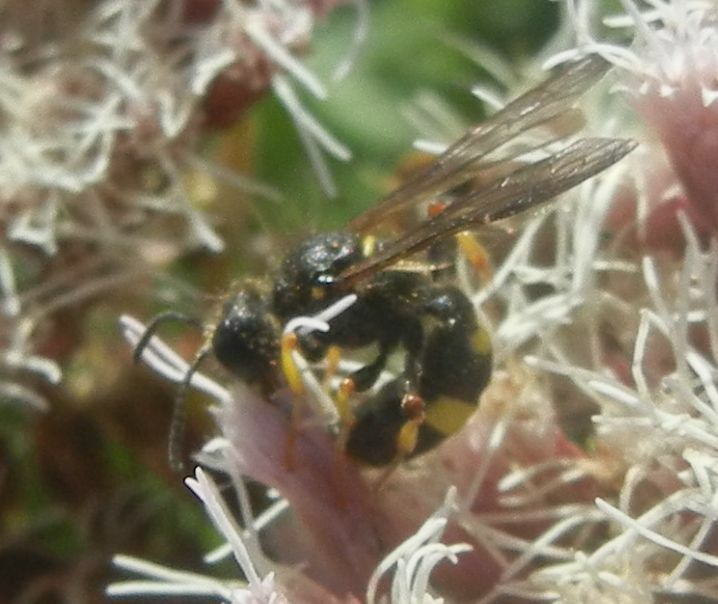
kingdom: Animalia
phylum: Arthropoda
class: Insecta
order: Hymenoptera
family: Crabronidae
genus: Cerceris
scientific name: Cerceris rybyensis
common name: Ornate tailed digger wasp
